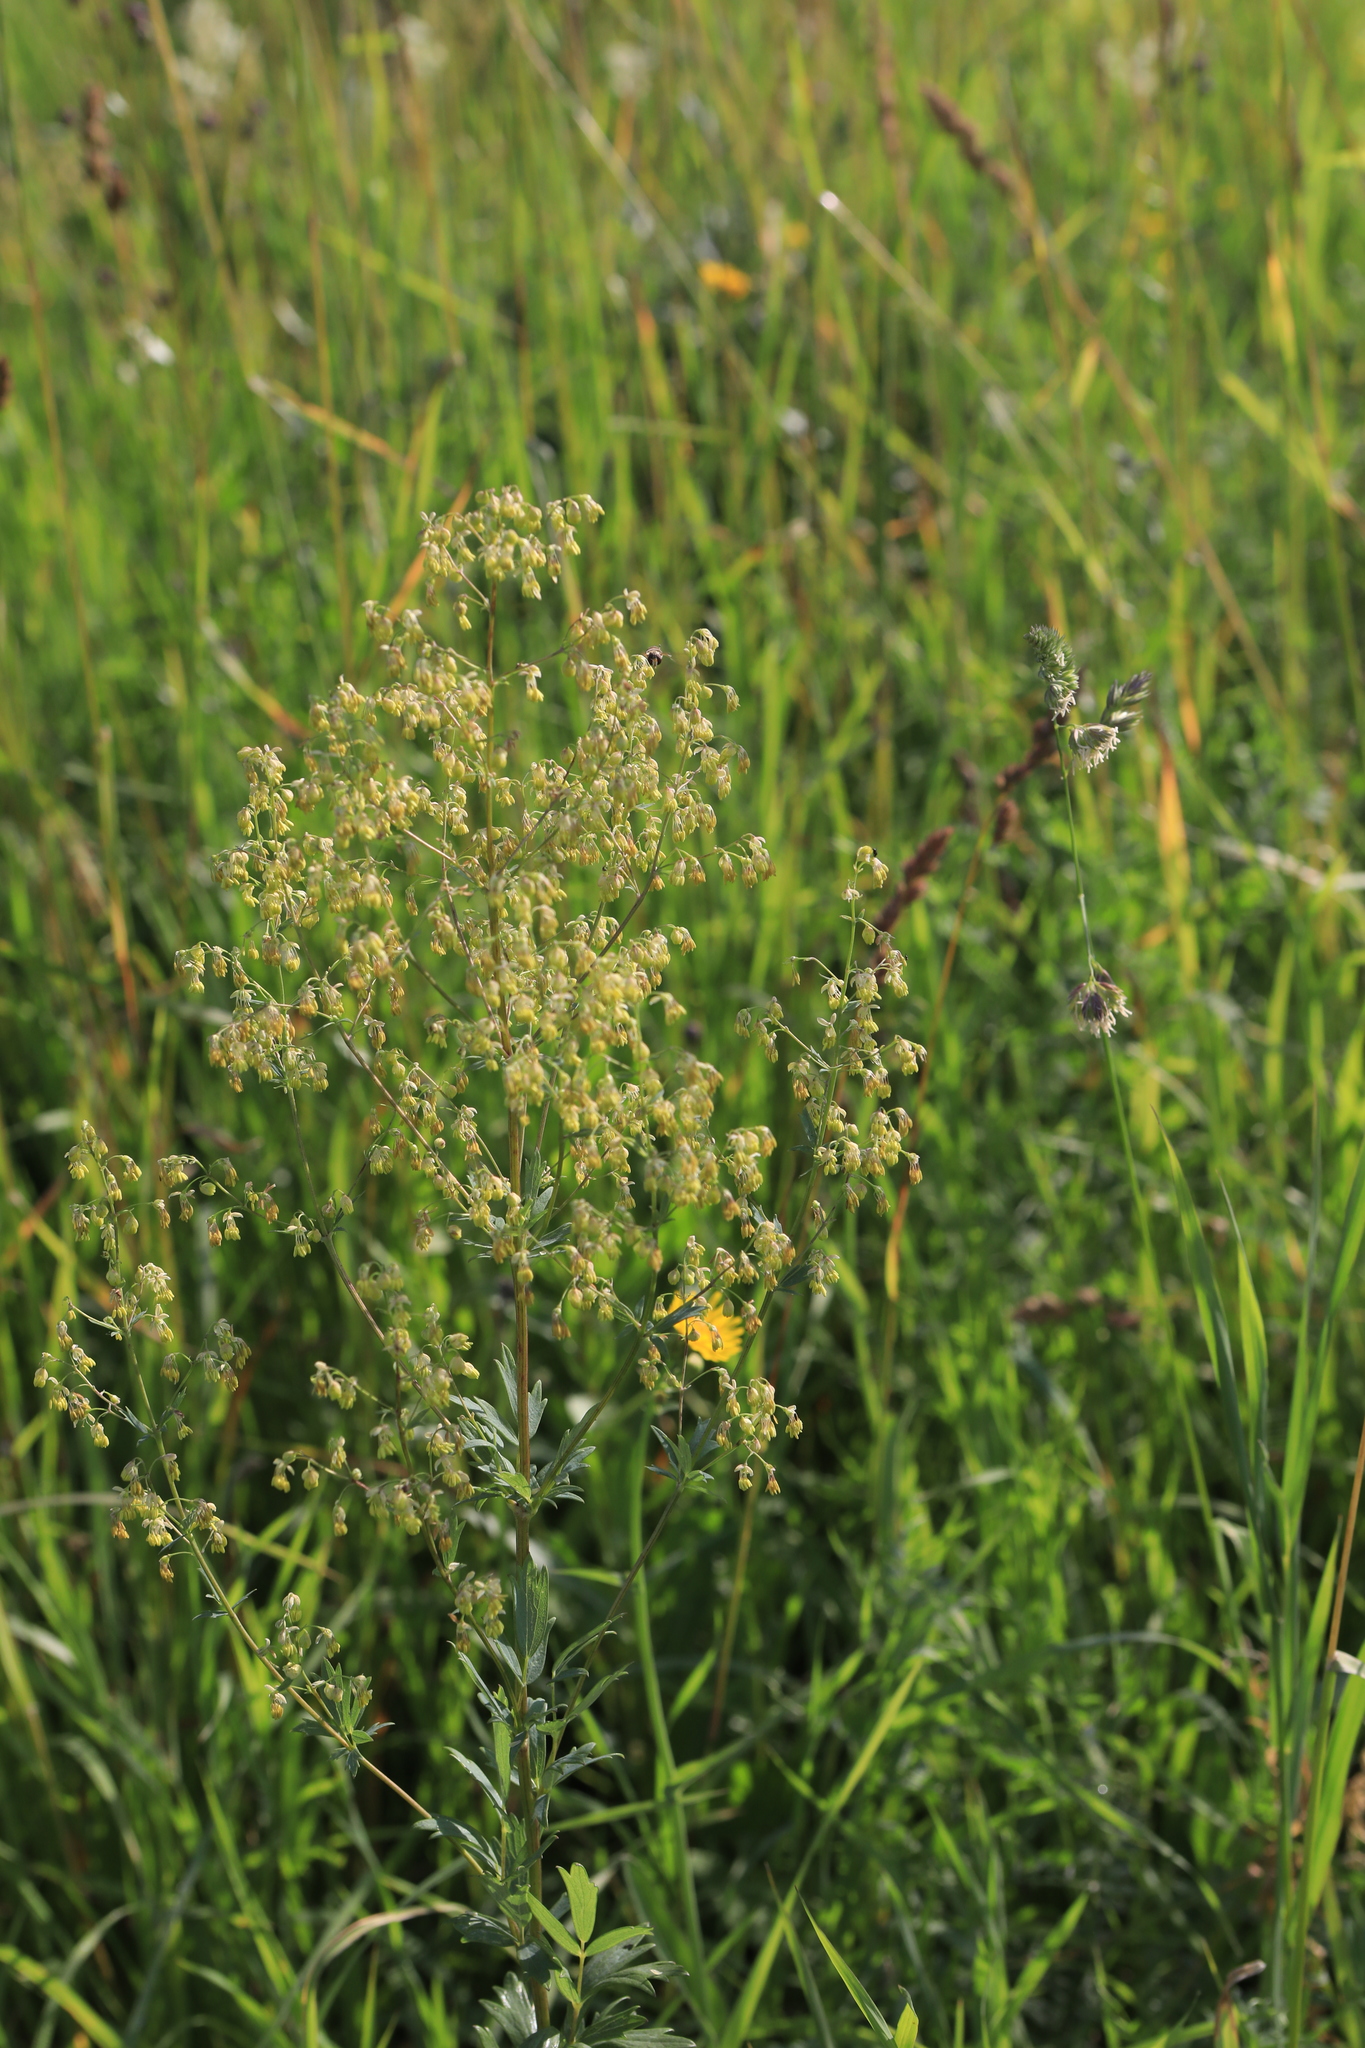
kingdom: Plantae
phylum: Tracheophyta
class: Magnoliopsida
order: Ranunculales
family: Ranunculaceae
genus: Thalictrum
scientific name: Thalictrum simplex
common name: Small meadow-rue
